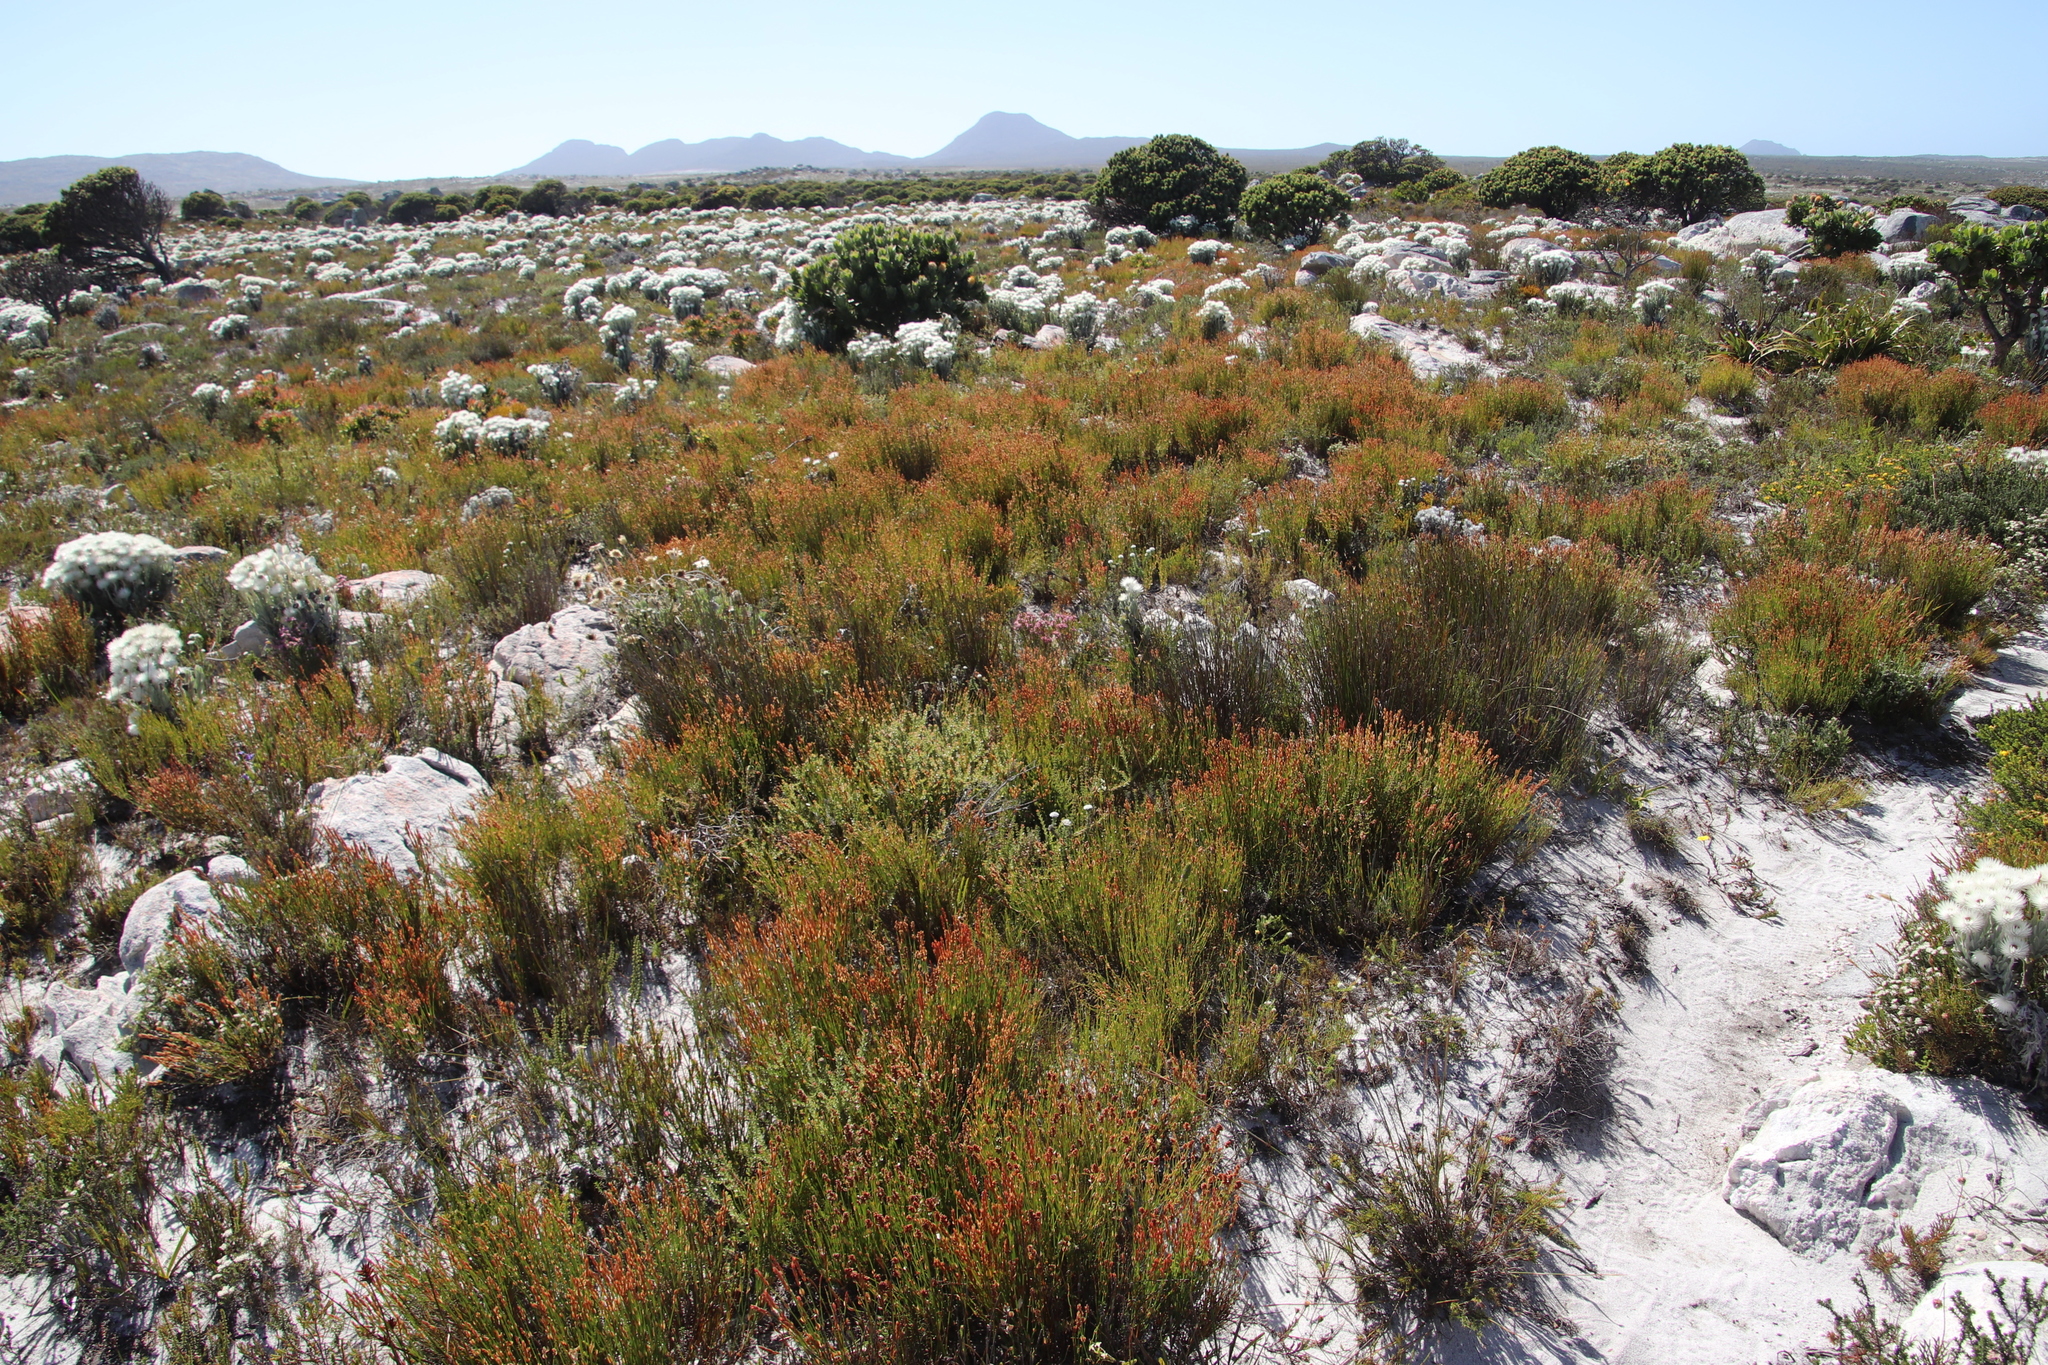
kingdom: Plantae
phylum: Tracheophyta
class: Liliopsida
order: Poales
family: Restionaceae
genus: Elegia
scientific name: Elegia stipularis
